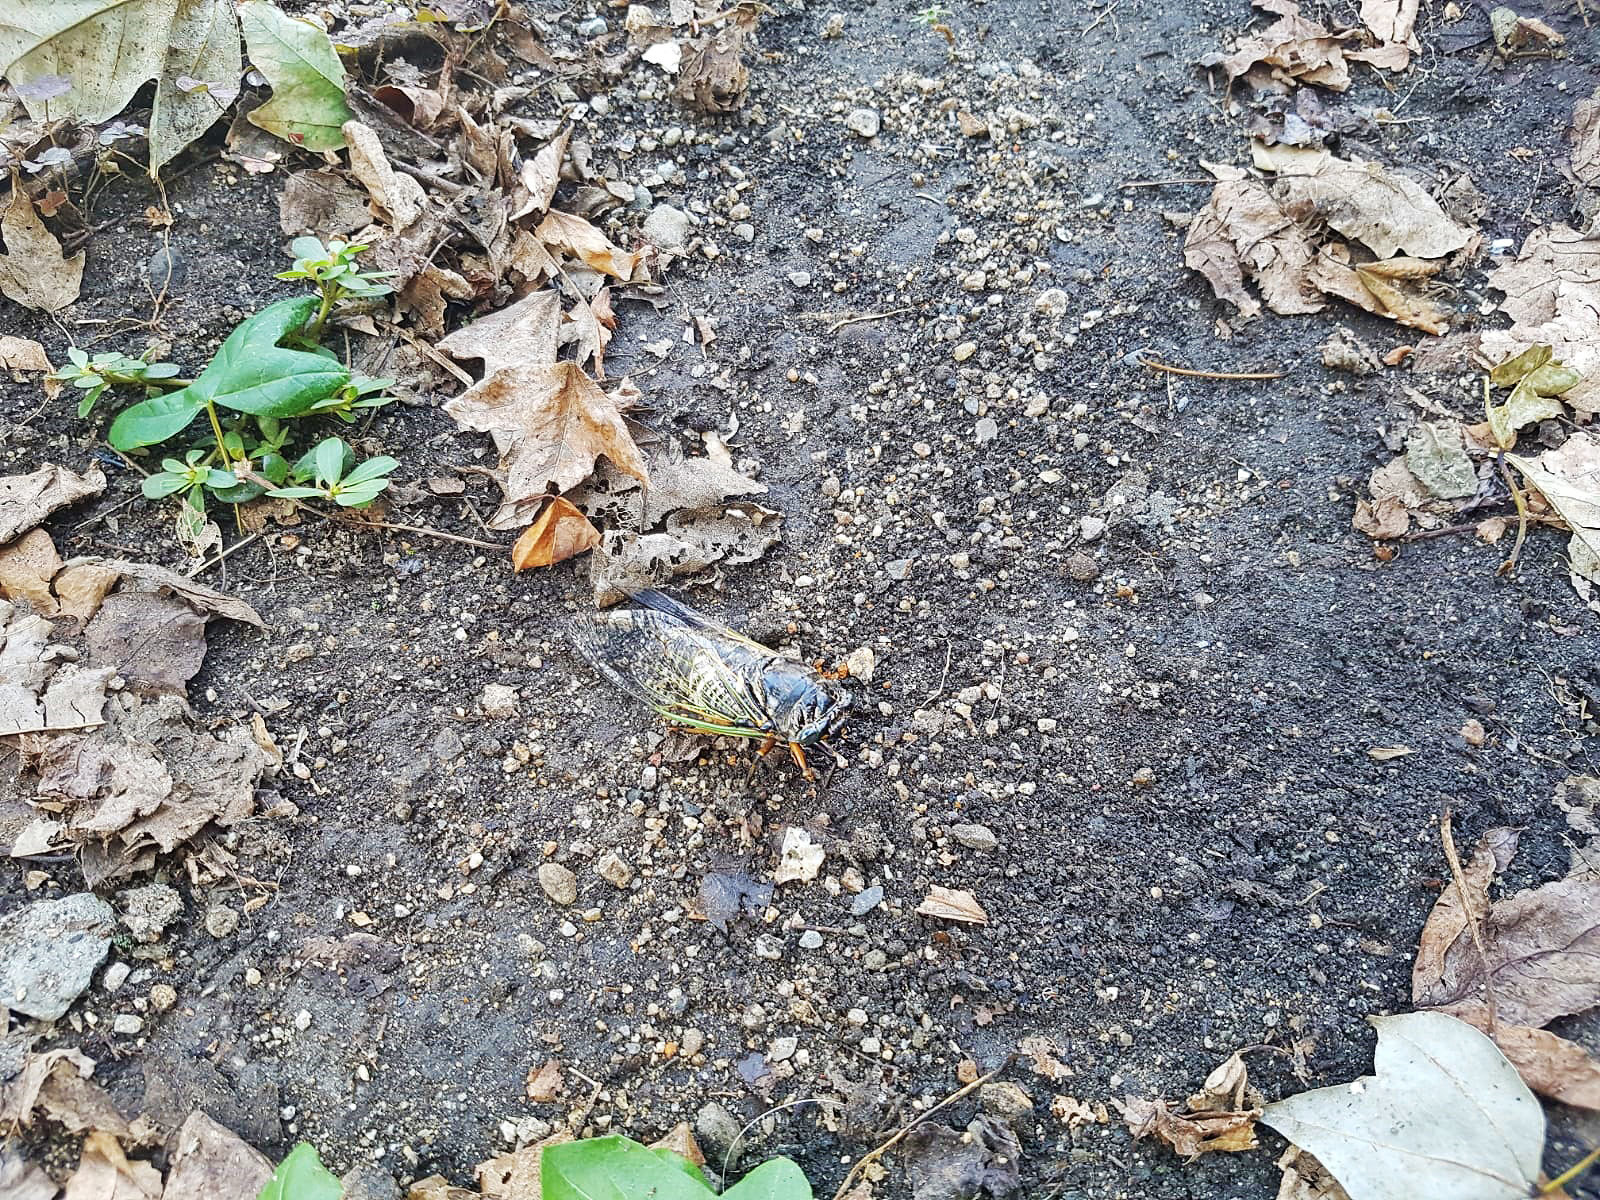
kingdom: Animalia
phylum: Arthropoda
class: Insecta
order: Hemiptera
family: Cicadidae
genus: Cryptotympana
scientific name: Cryptotympana facialis
